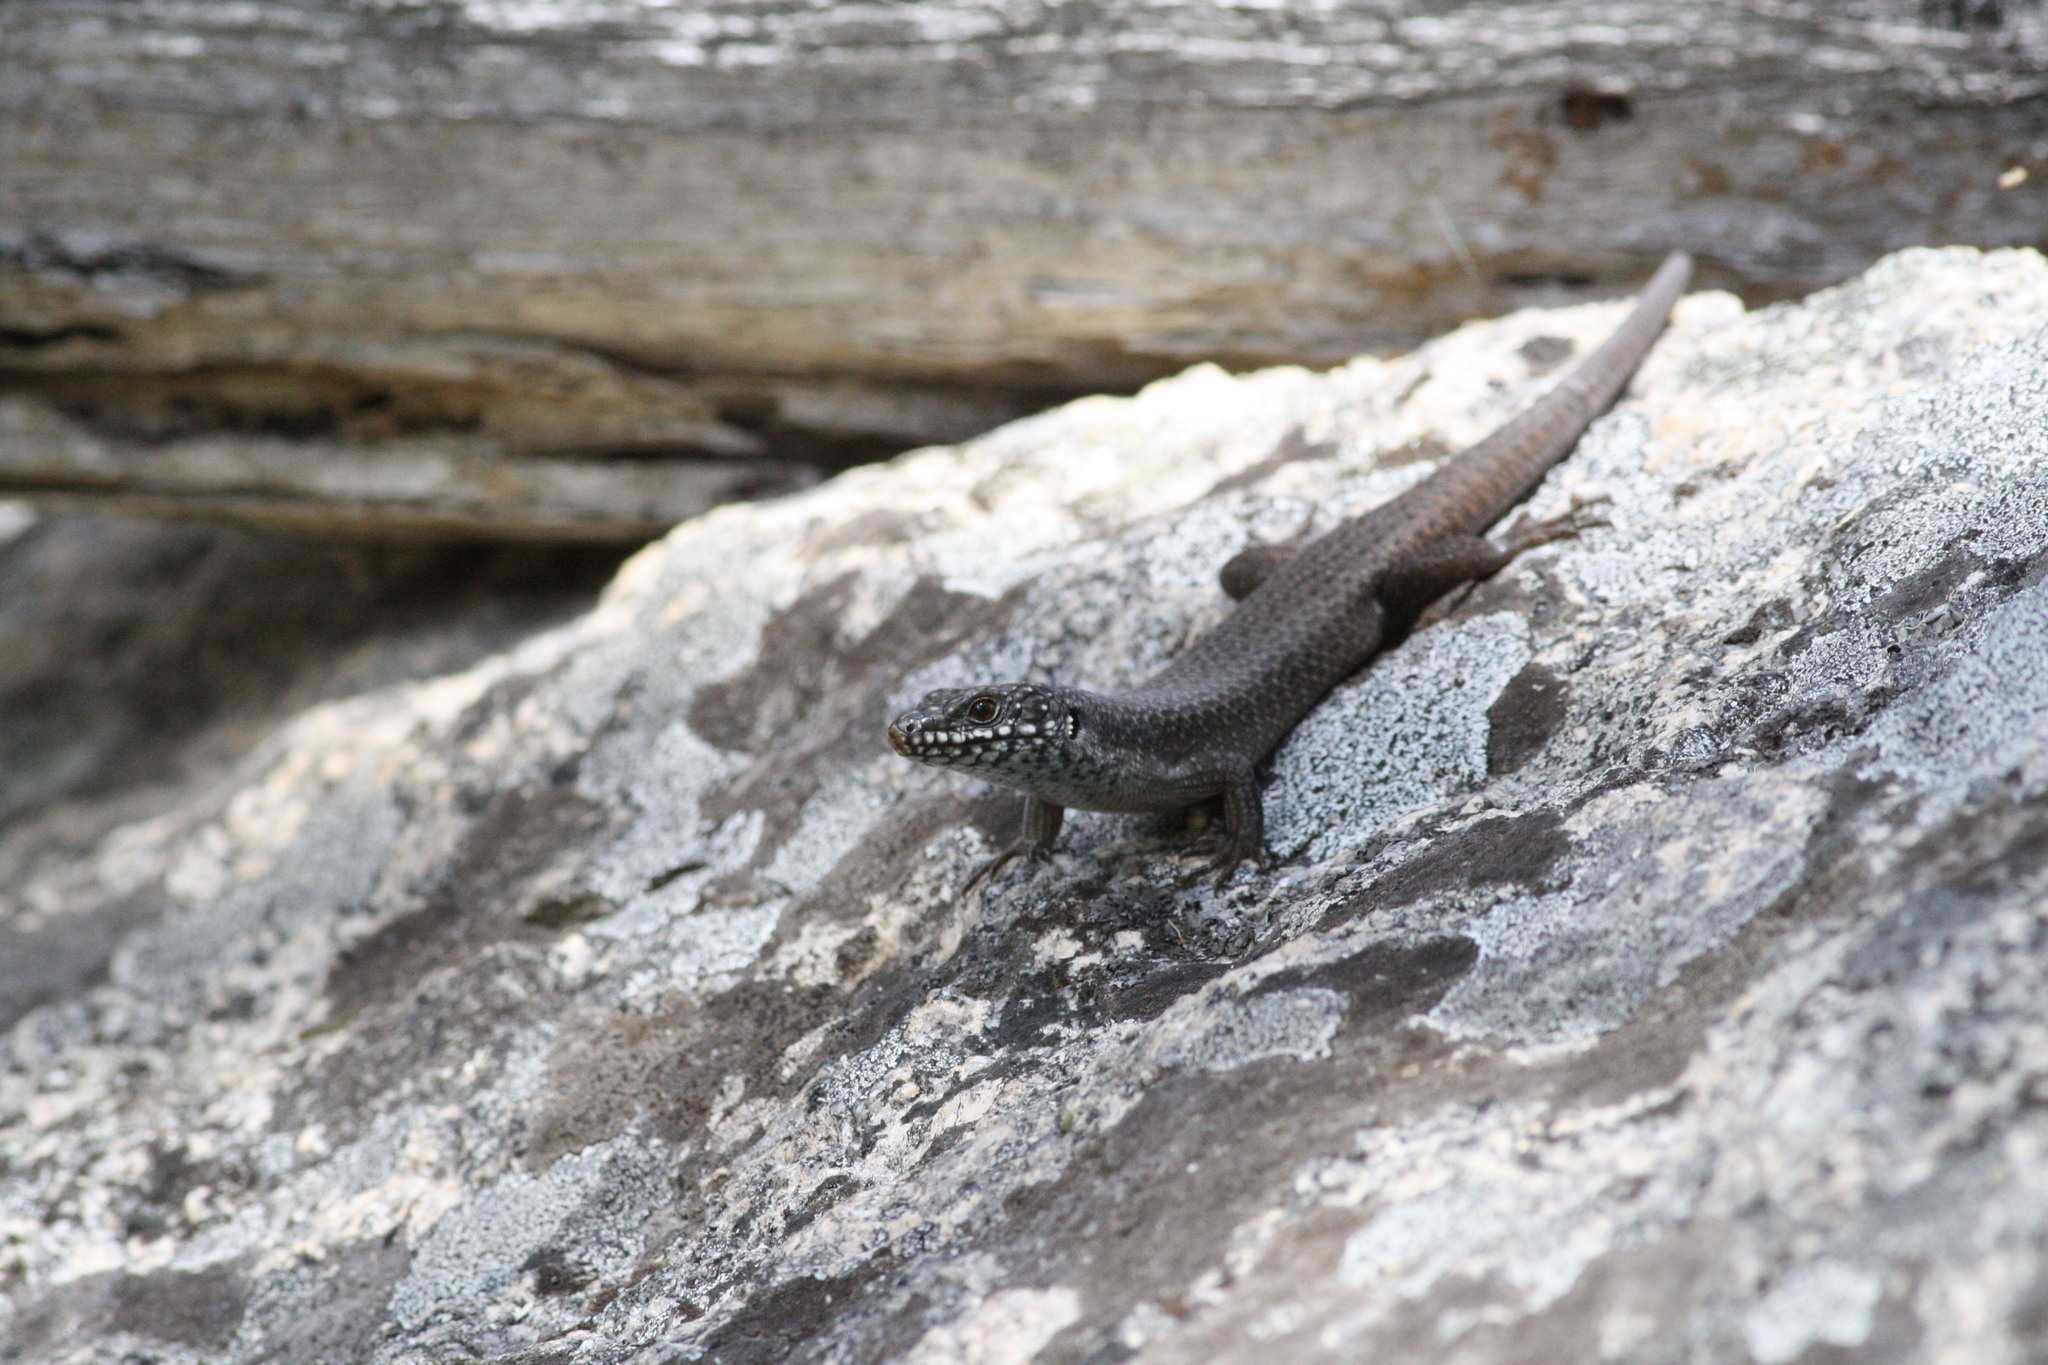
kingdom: Animalia
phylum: Chordata
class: Squamata
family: Scincidae
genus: Egernia
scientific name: Egernia mcpheei
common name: Eastern crevice skink
